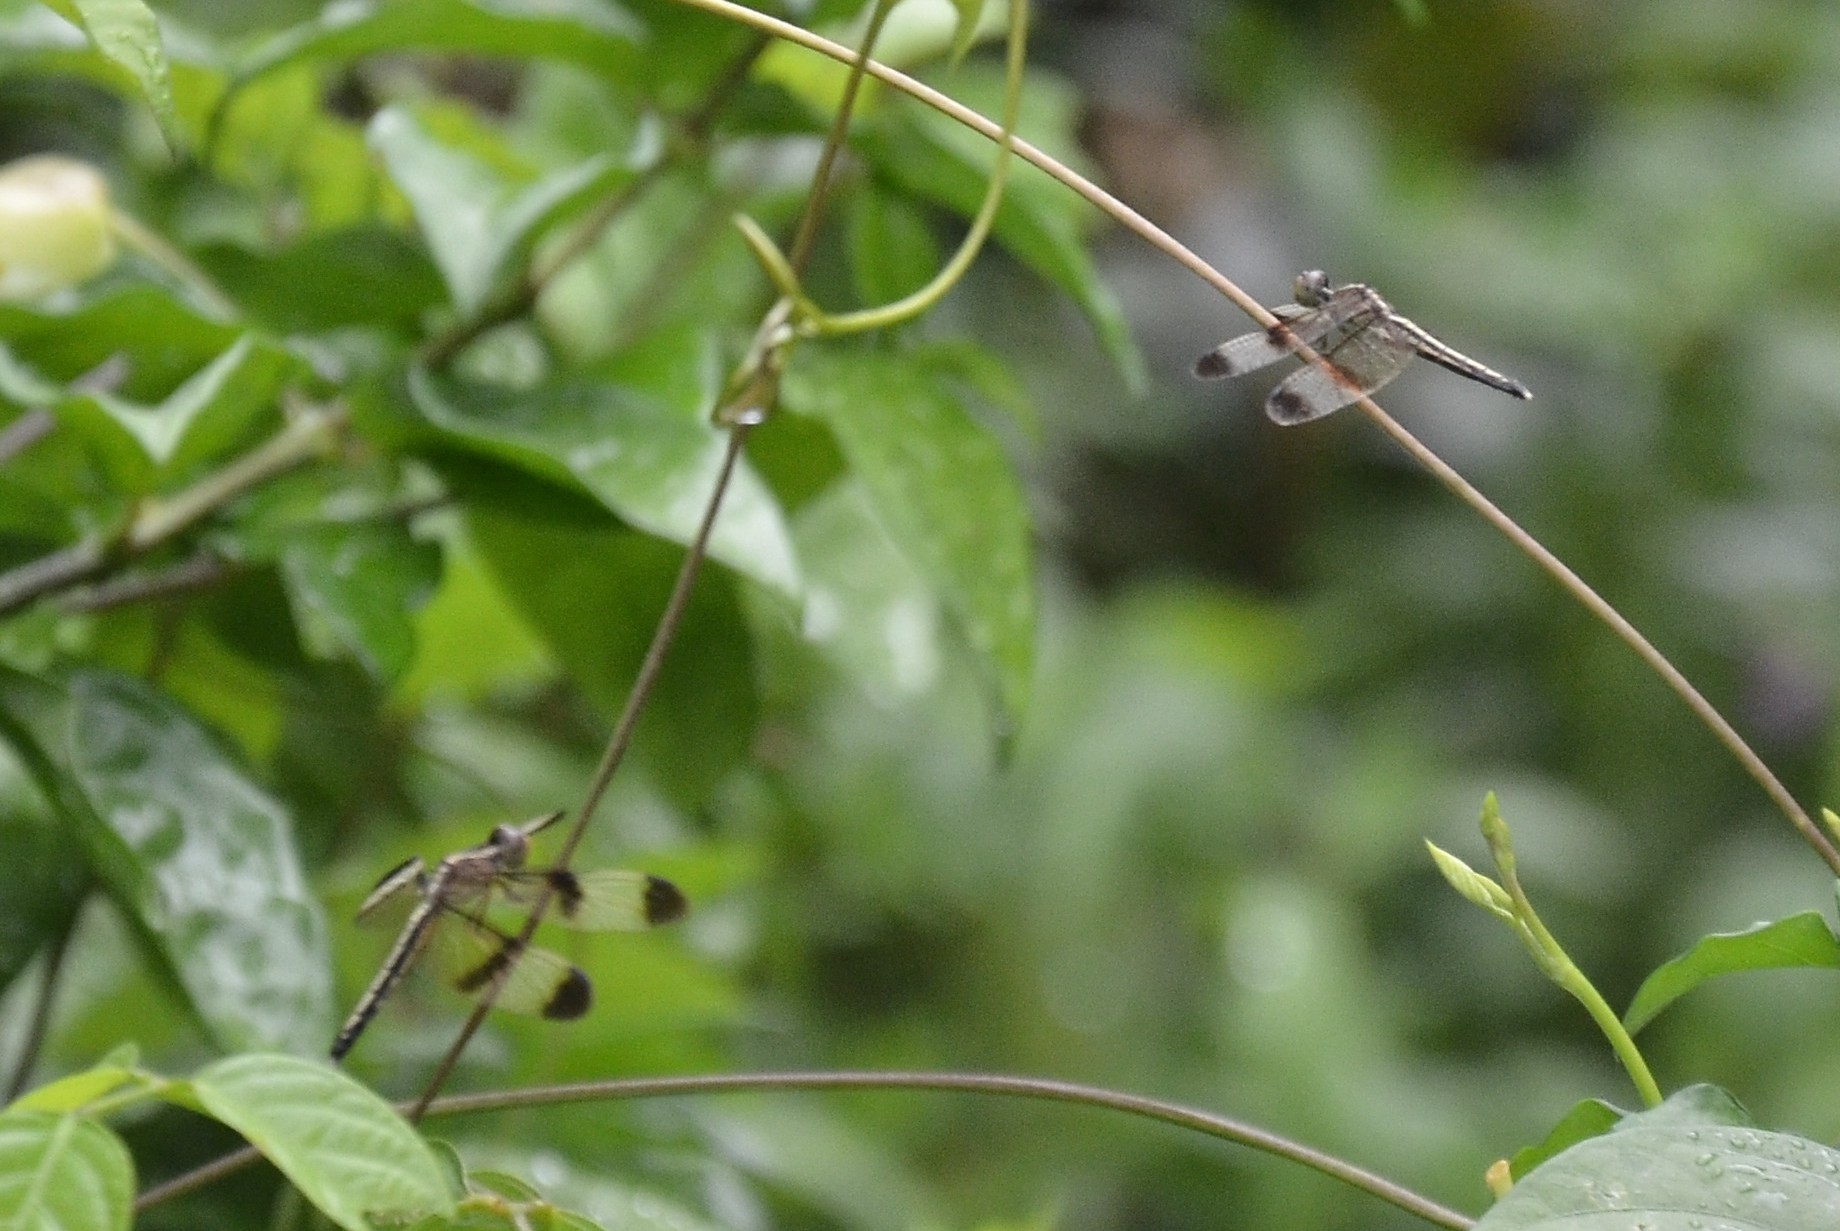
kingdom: Animalia
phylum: Arthropoda
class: Insecta
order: Odonata
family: Libellulidae
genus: Neurothemis
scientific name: Neurothemis tullia
